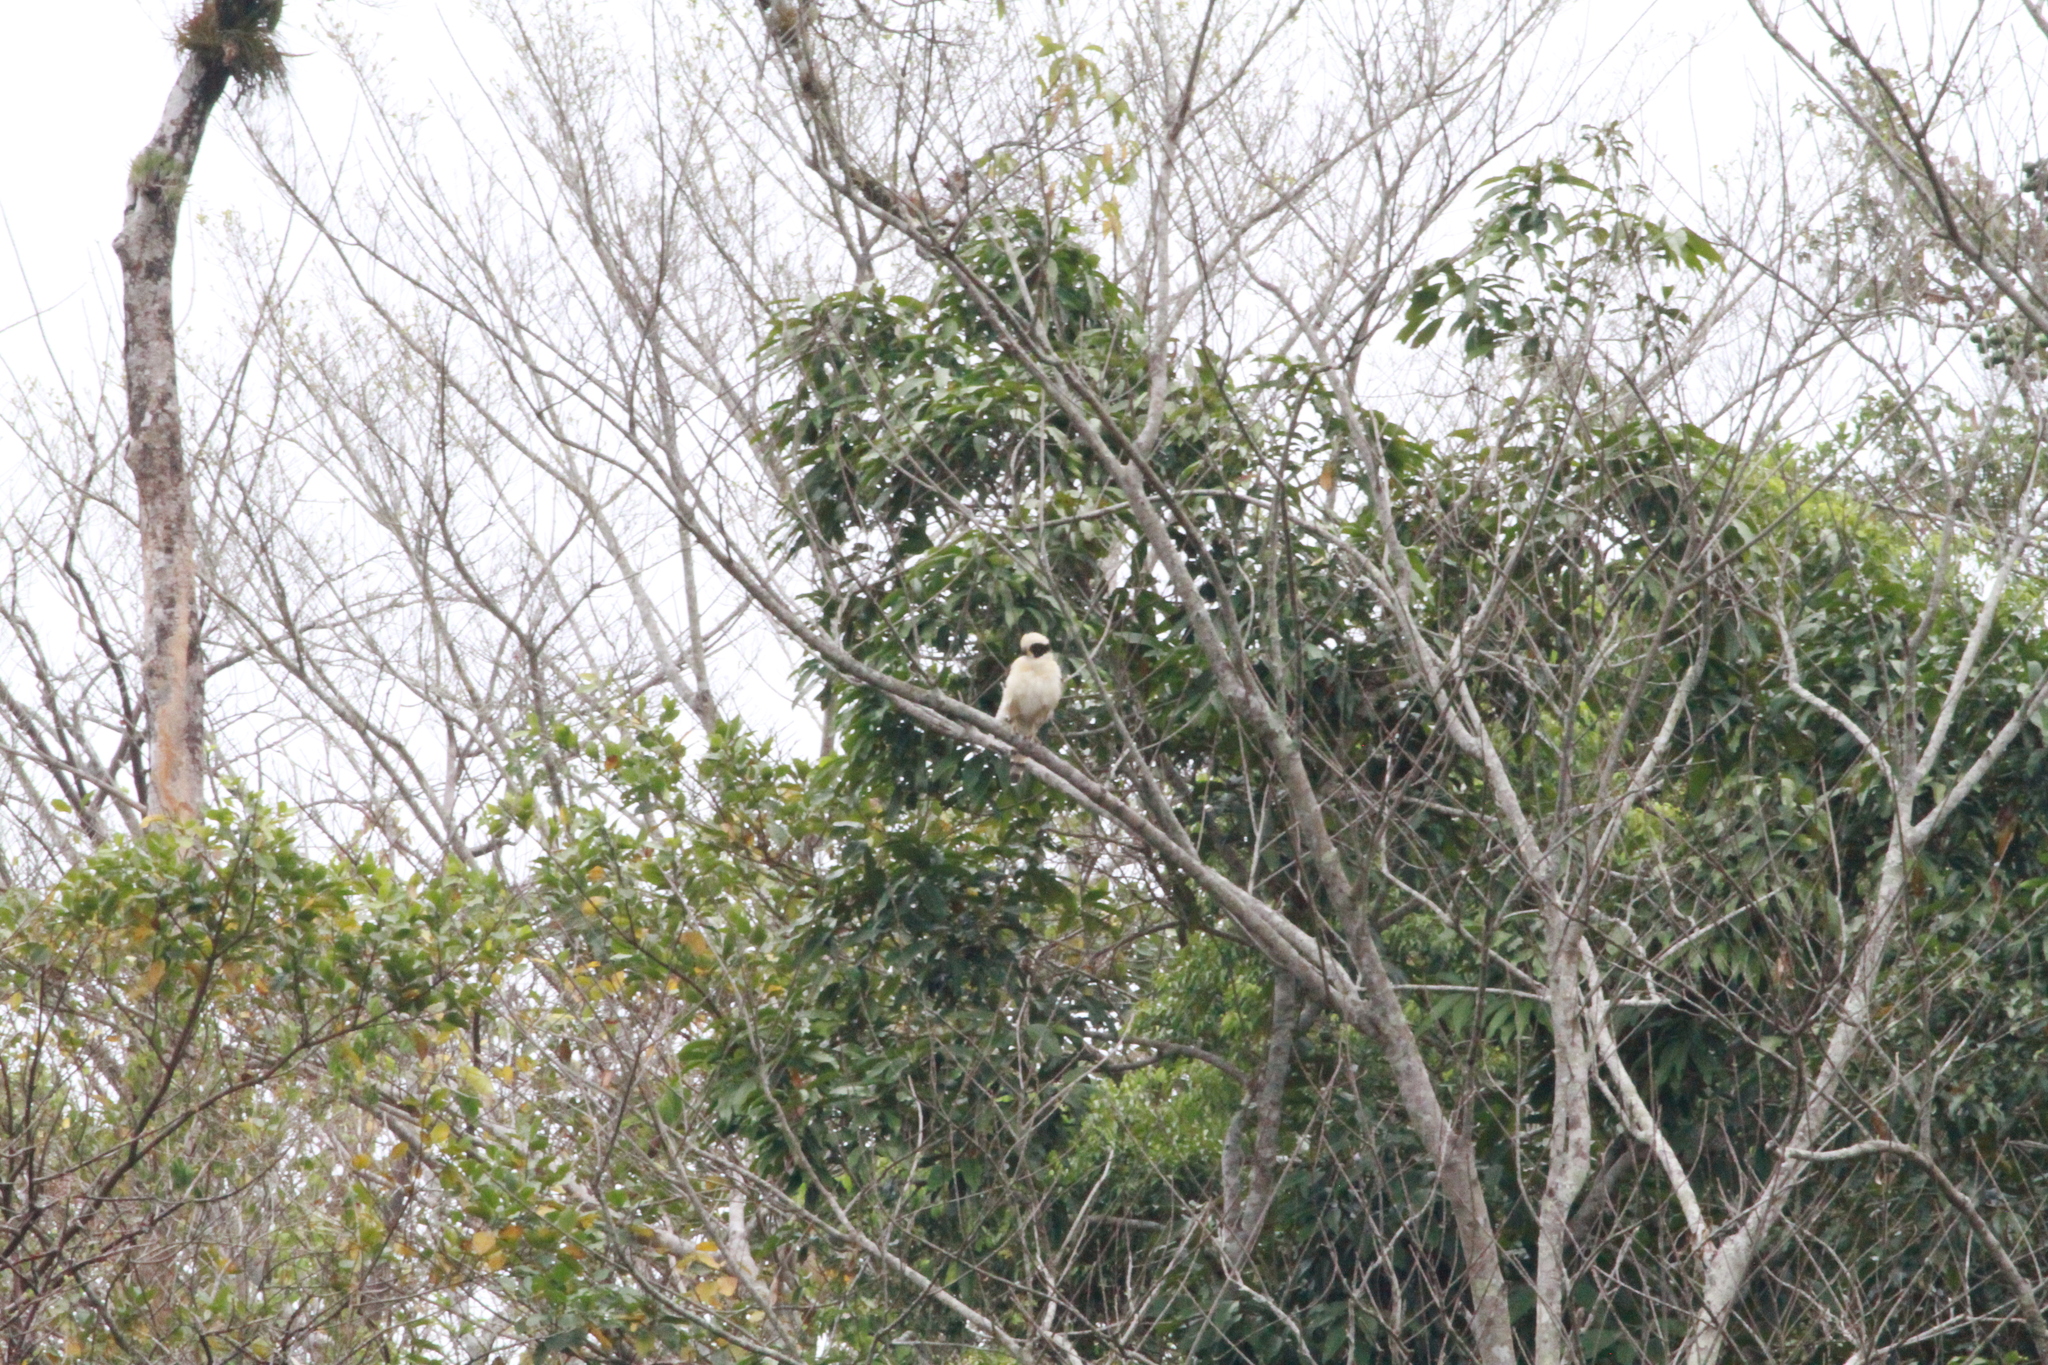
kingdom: Animalia
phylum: Chordata
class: Aves
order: Falconiformes
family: Falconidae
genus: Herpetotheres
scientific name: Herpetotheres cachinnans
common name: Laughing falcon
